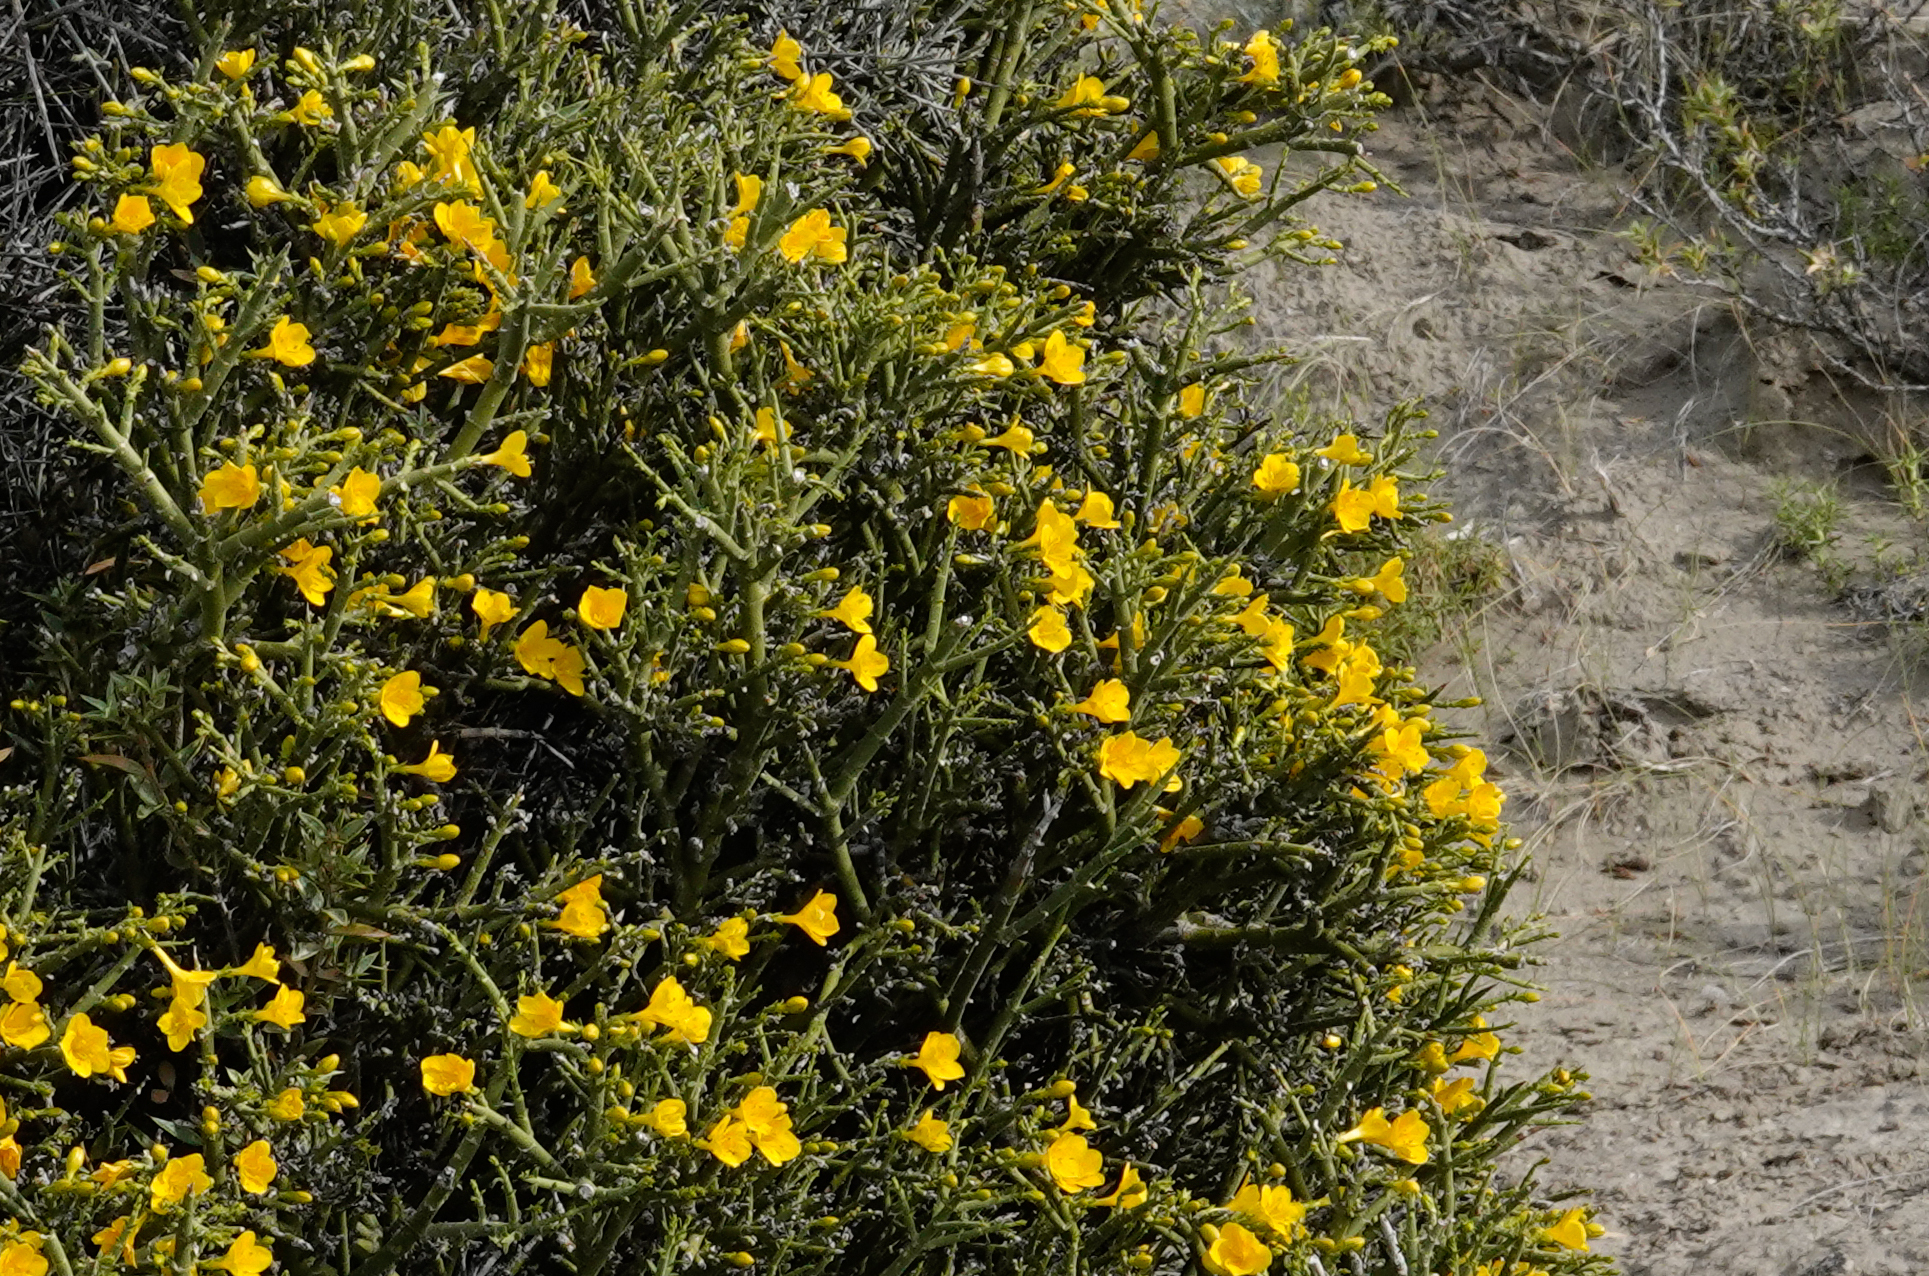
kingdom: Plantae
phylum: Tracheophyta
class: Magnoliopsida
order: Lamiales
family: Oleaceae
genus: Menodora
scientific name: Menodora robusta
